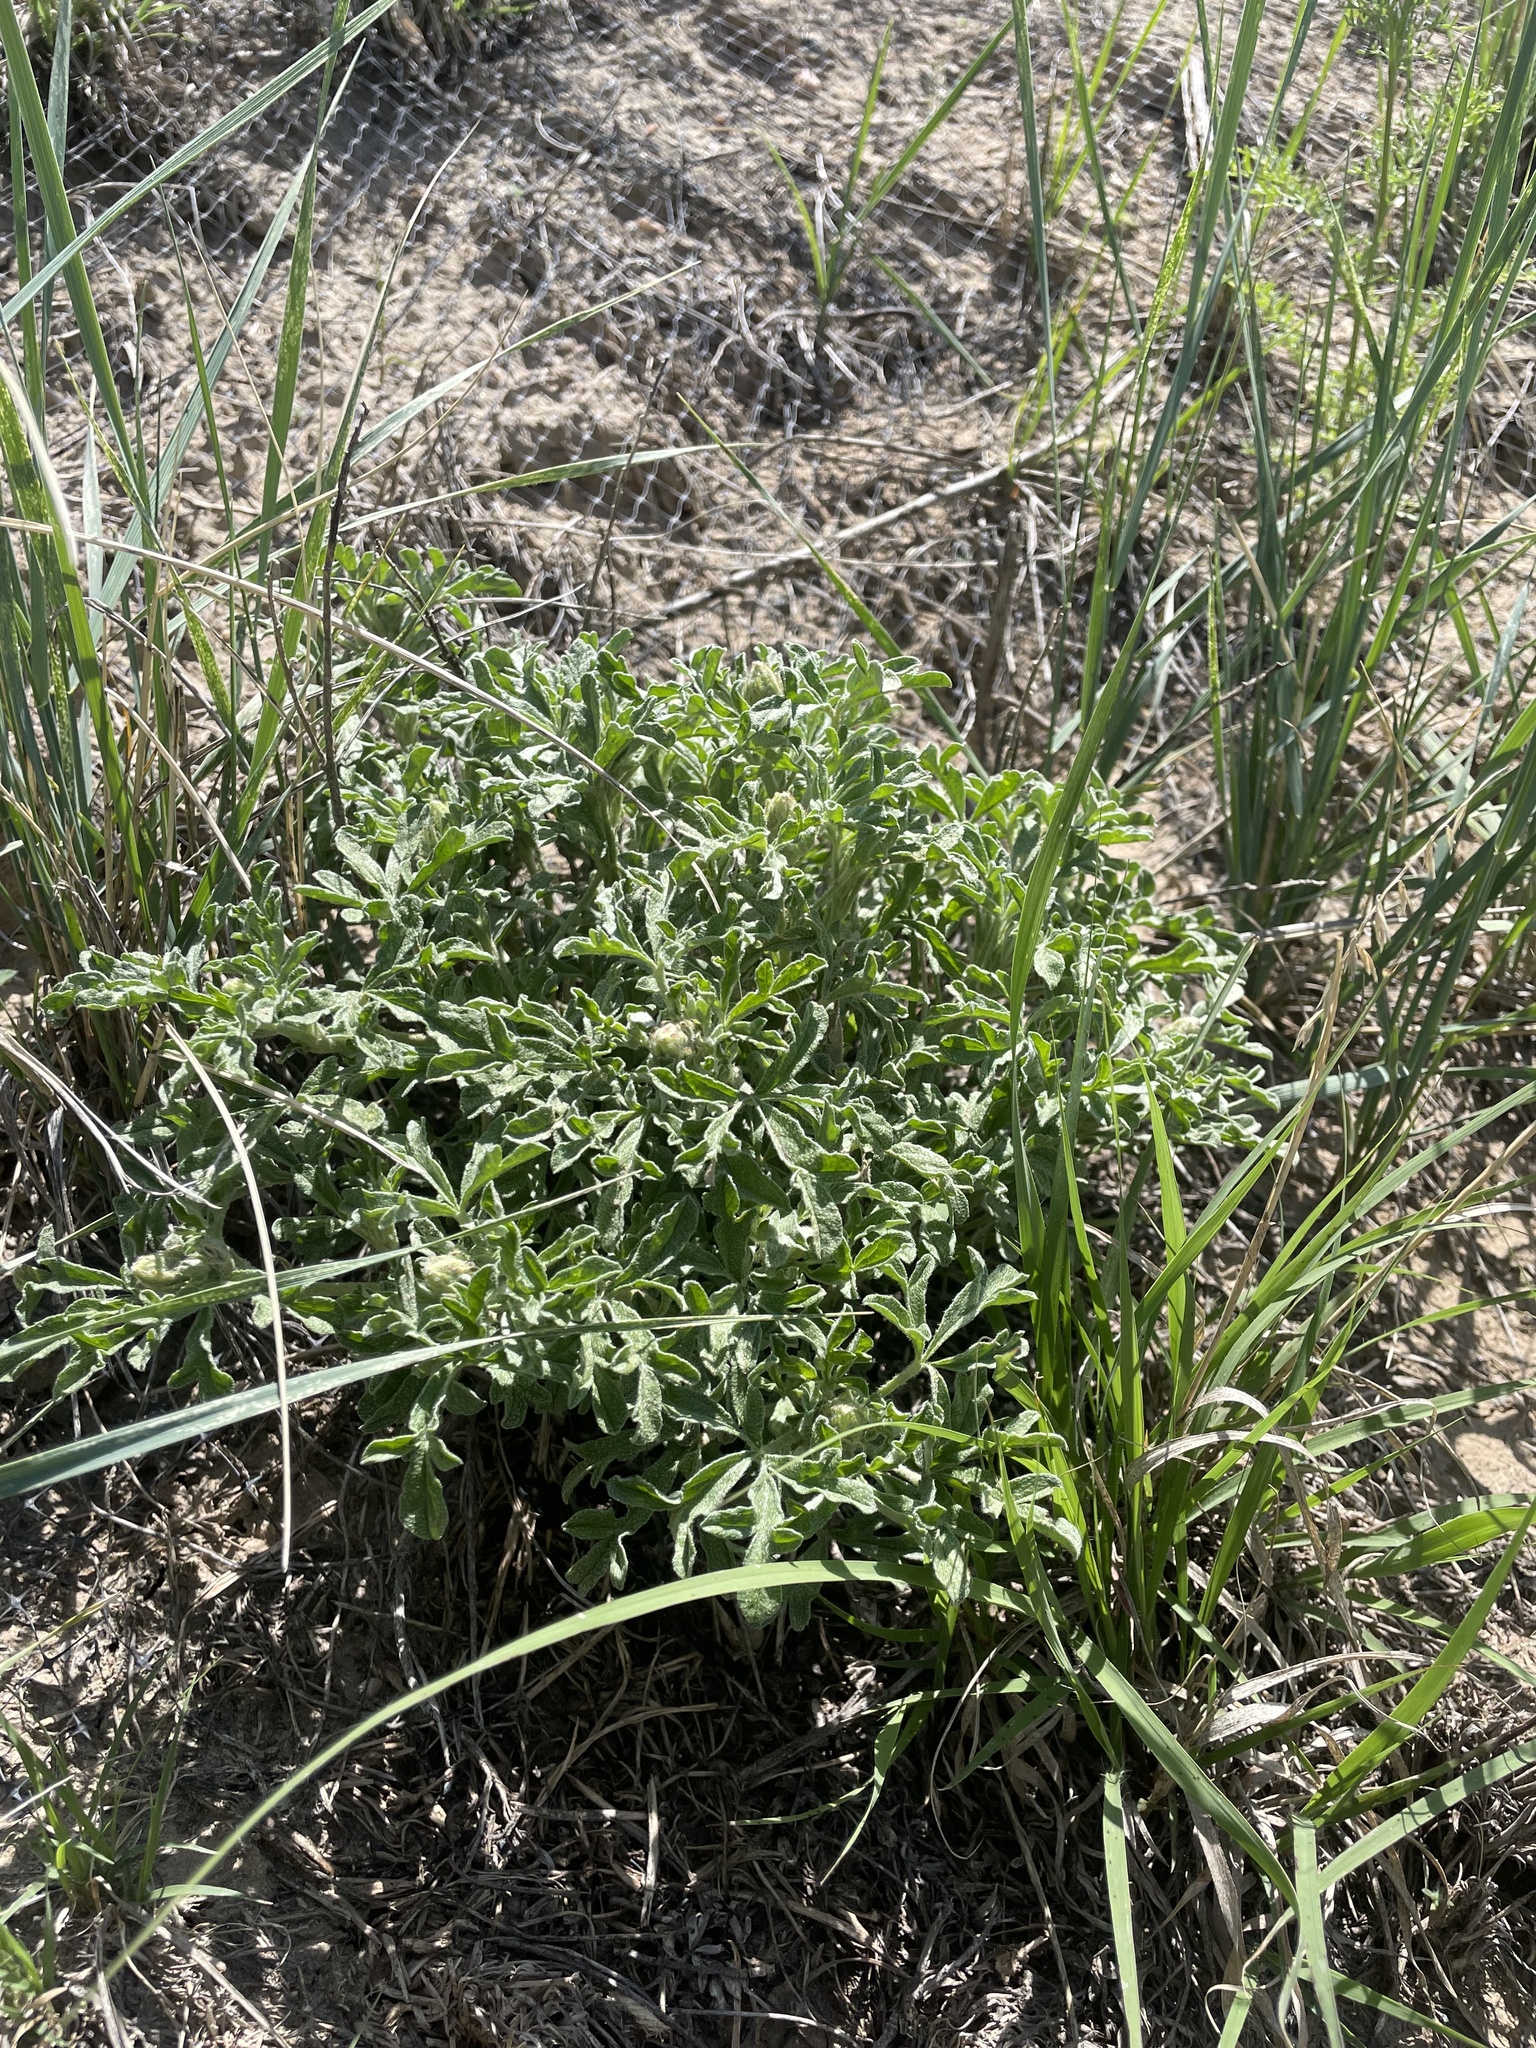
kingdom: Plantae
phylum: Tracheophyta
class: Magnoliopsida
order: Malvales
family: Malvaceae
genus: Sphaeralcea
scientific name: Sphaeralcea coccinea
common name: Moss-rose
